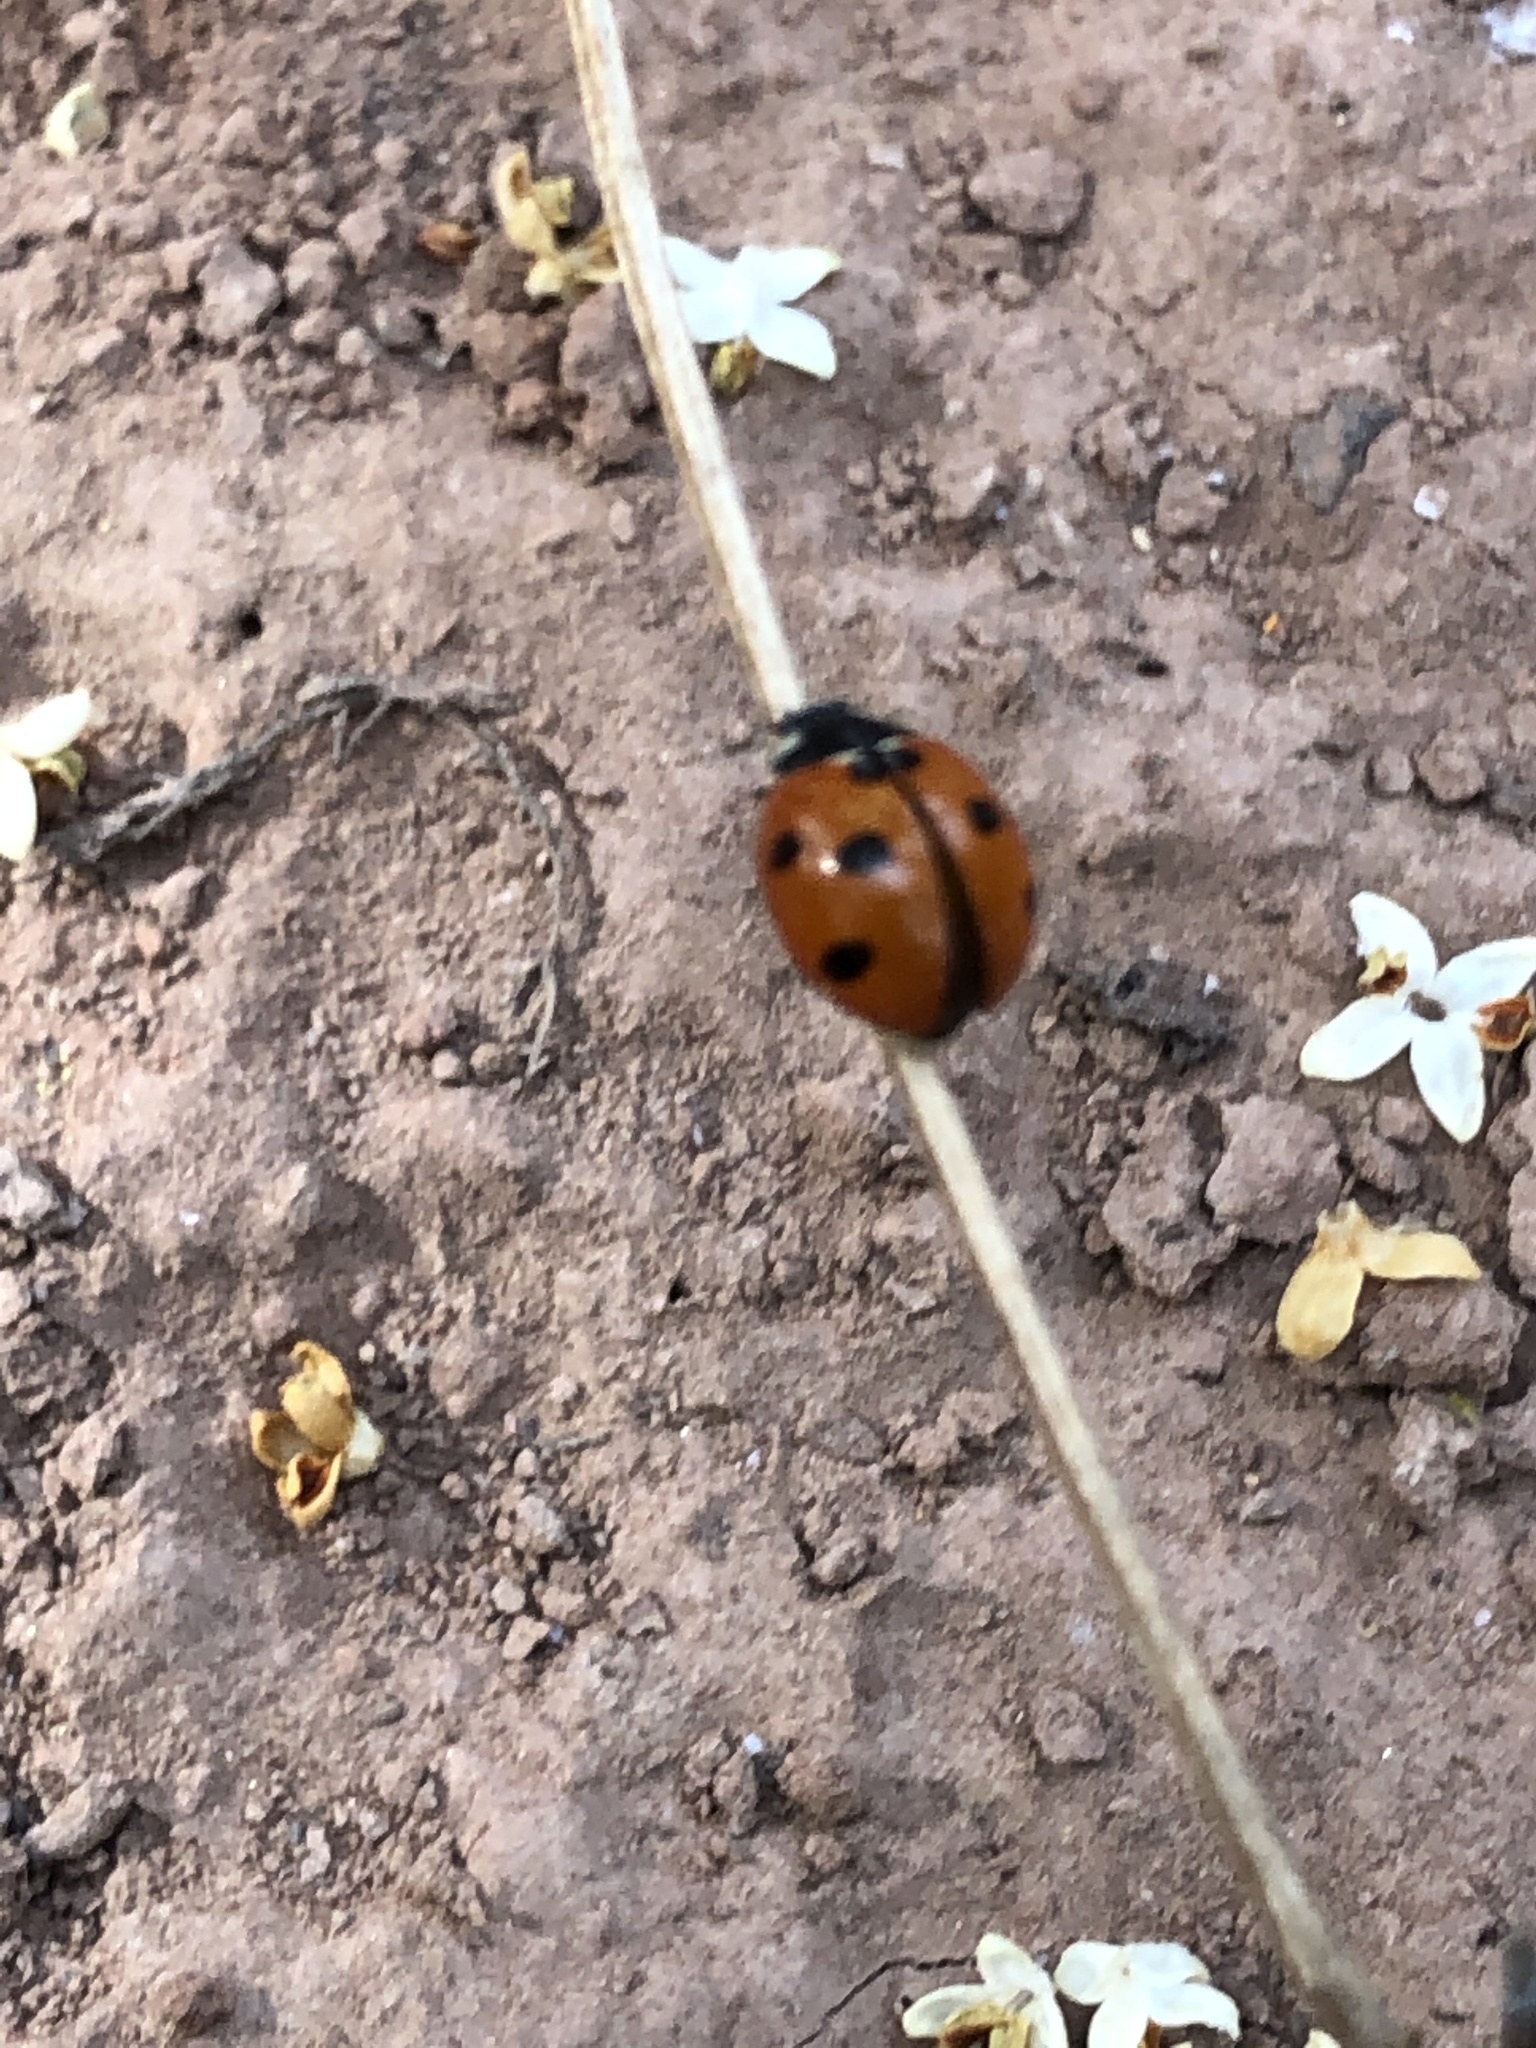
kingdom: Animalia
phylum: Arthropoda
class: Insecta
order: Coleoptera
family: Coccinellidae
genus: Coccinella
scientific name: Coccinella algerica
